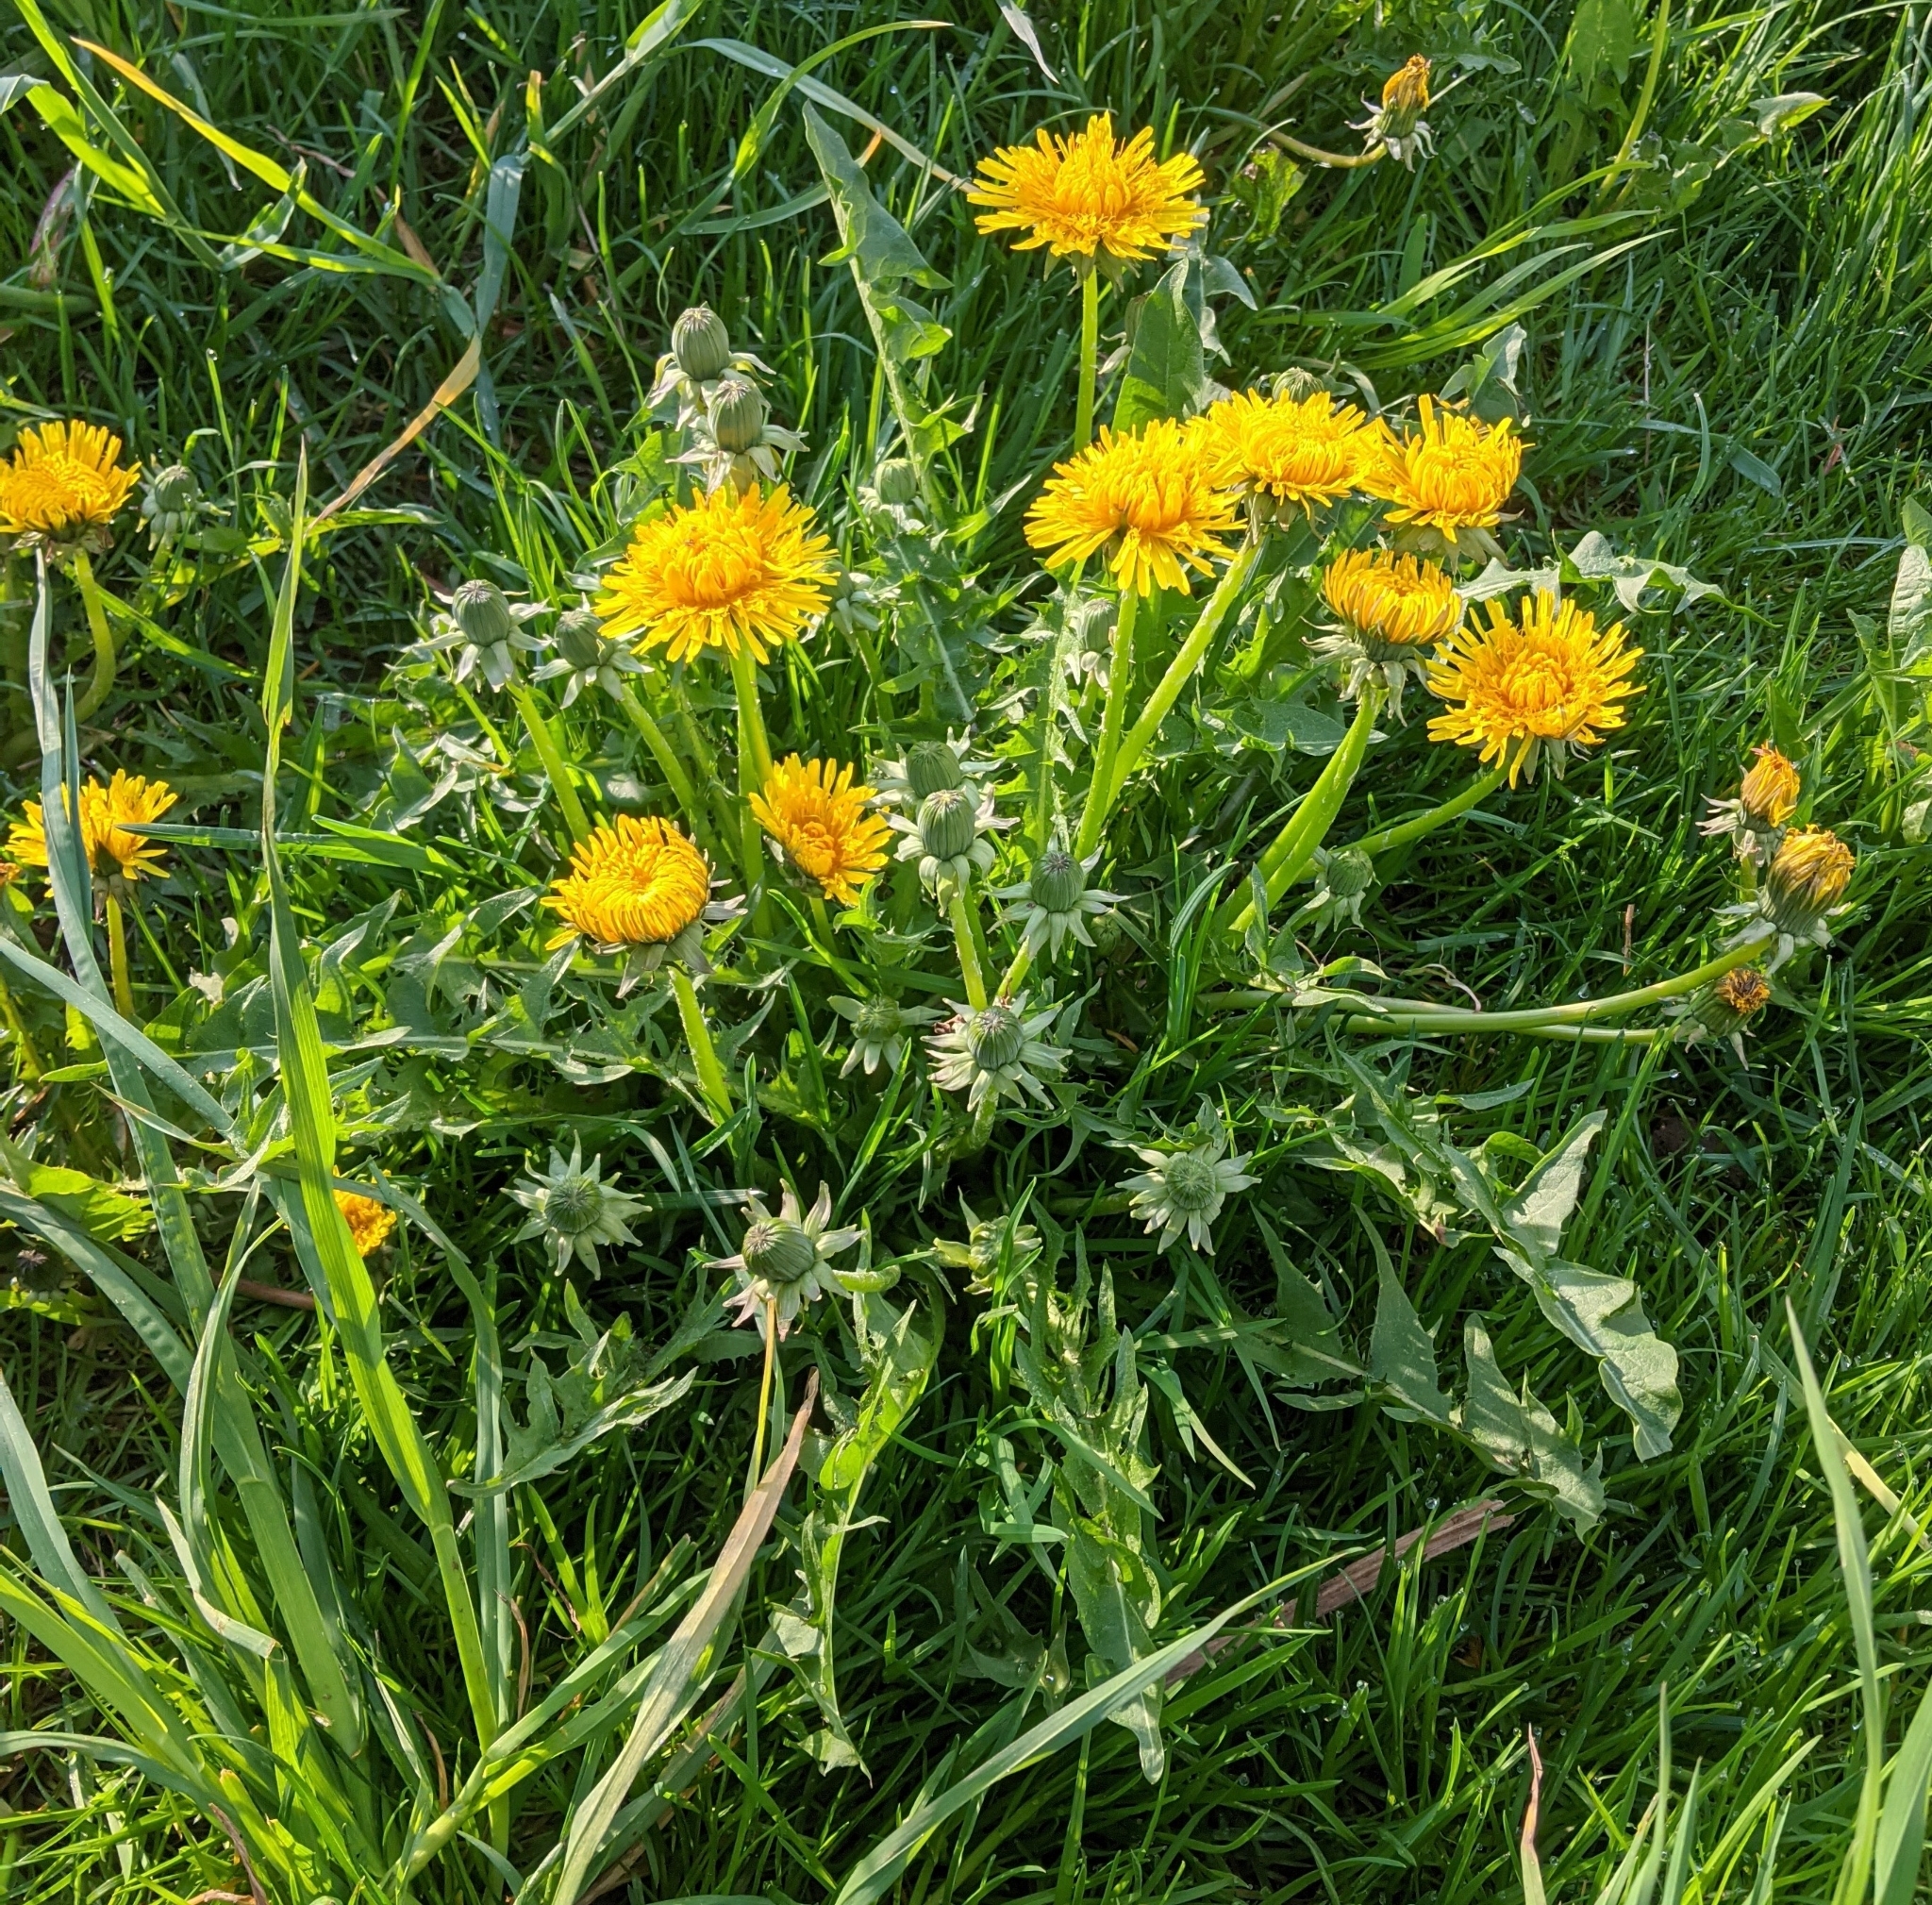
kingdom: Plantae
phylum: Tracheophyta
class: Magnoliopsida
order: Asterales
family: Asteraceae
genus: Taraxacum
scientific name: Taraxacum officinale
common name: Common dandelion
